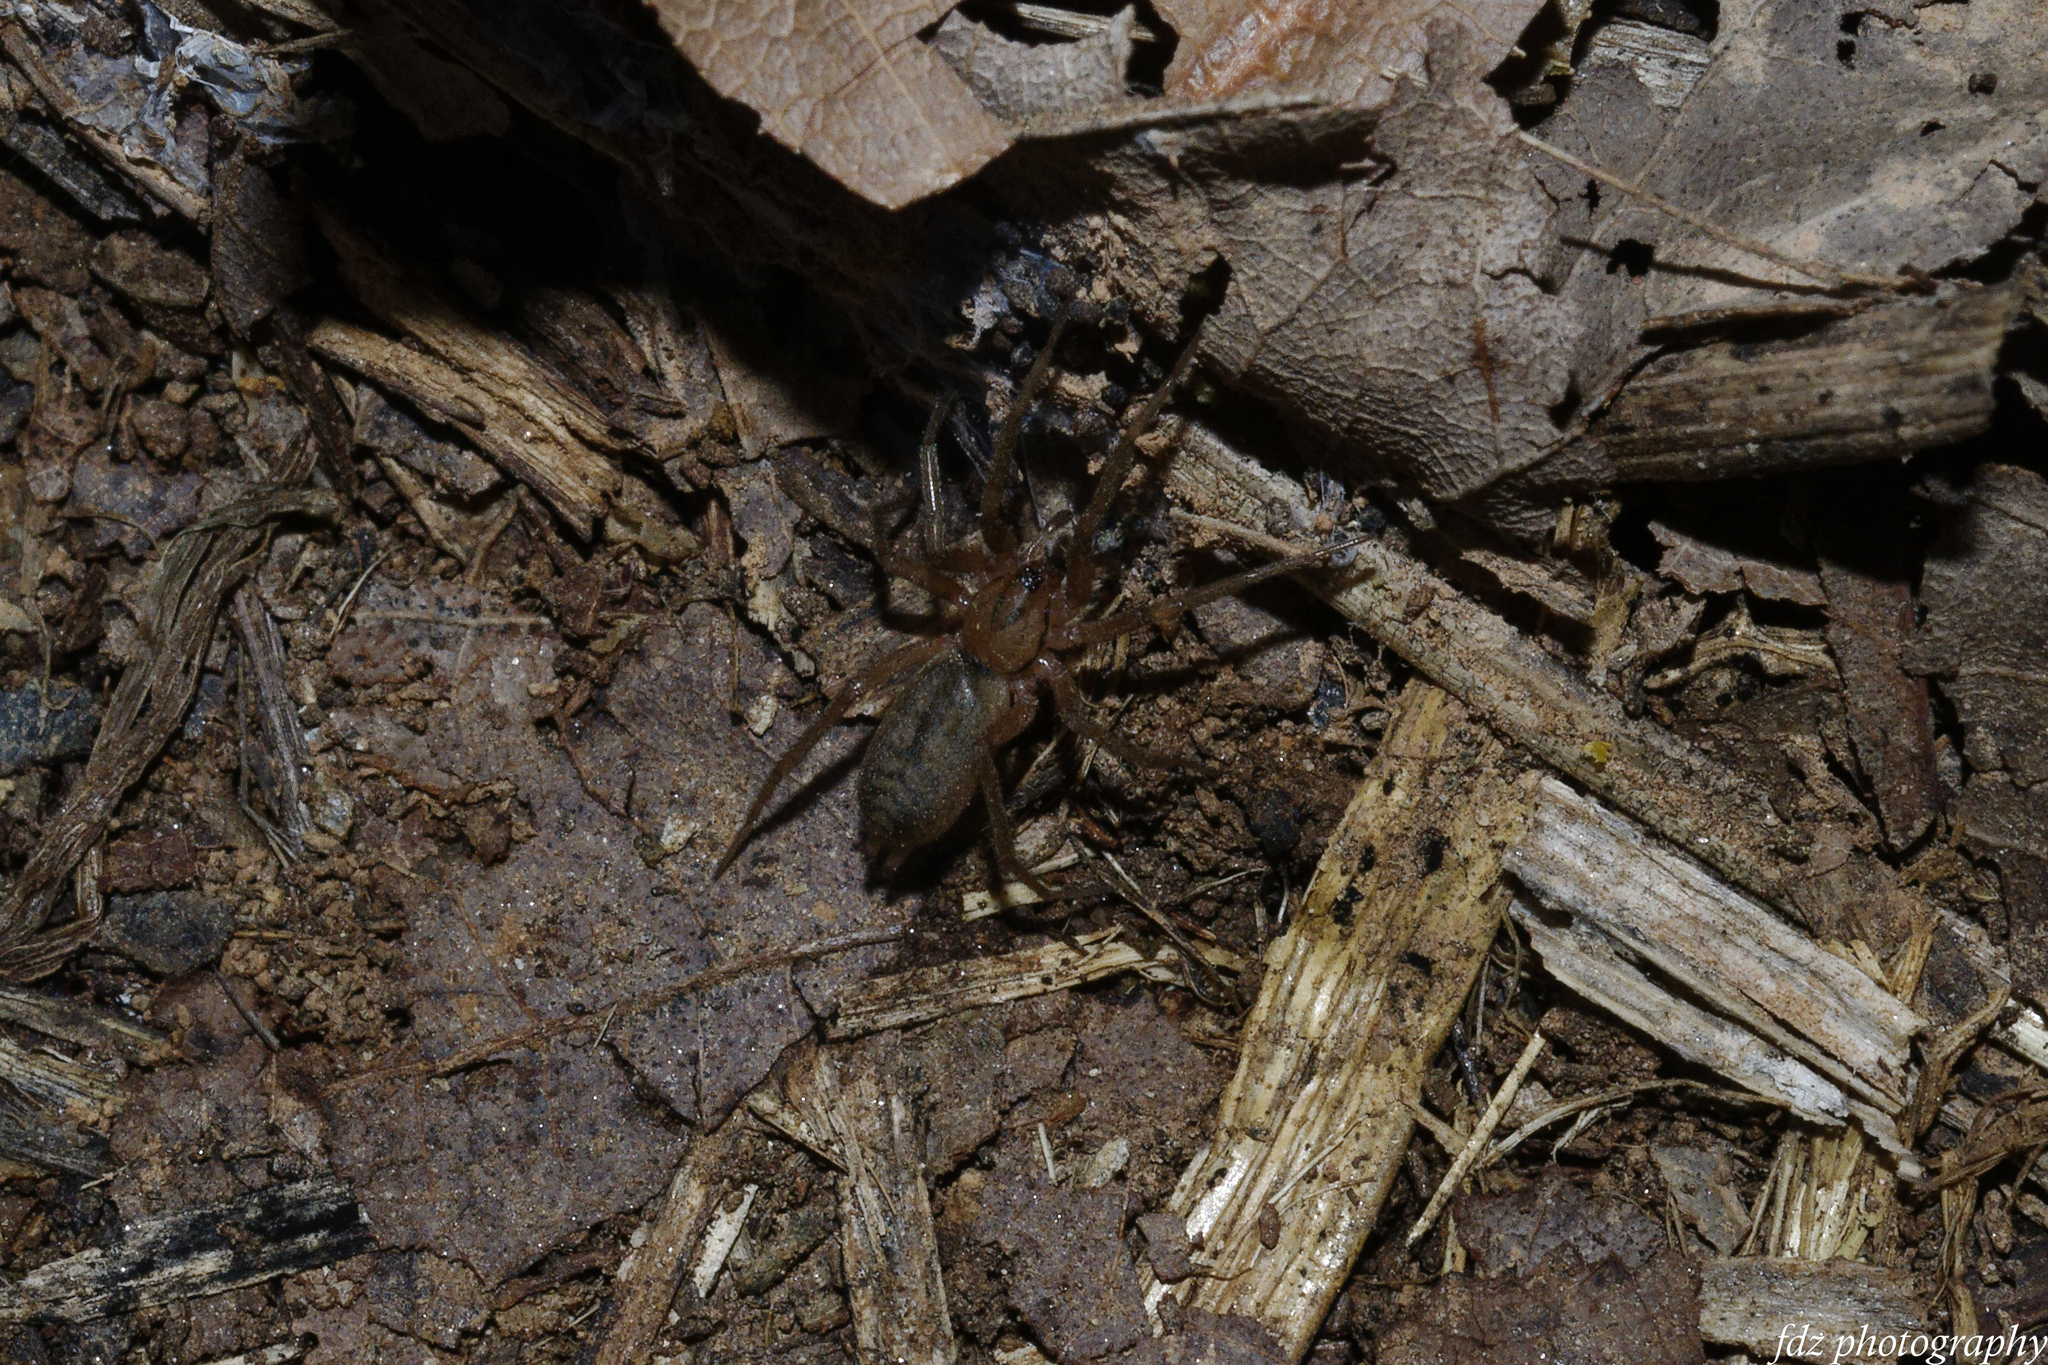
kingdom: Animalia
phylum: Arthropoda
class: Arachnida
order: Araneae
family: Gnaphosidae
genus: Pterotricha
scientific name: Pterotricha simoni
